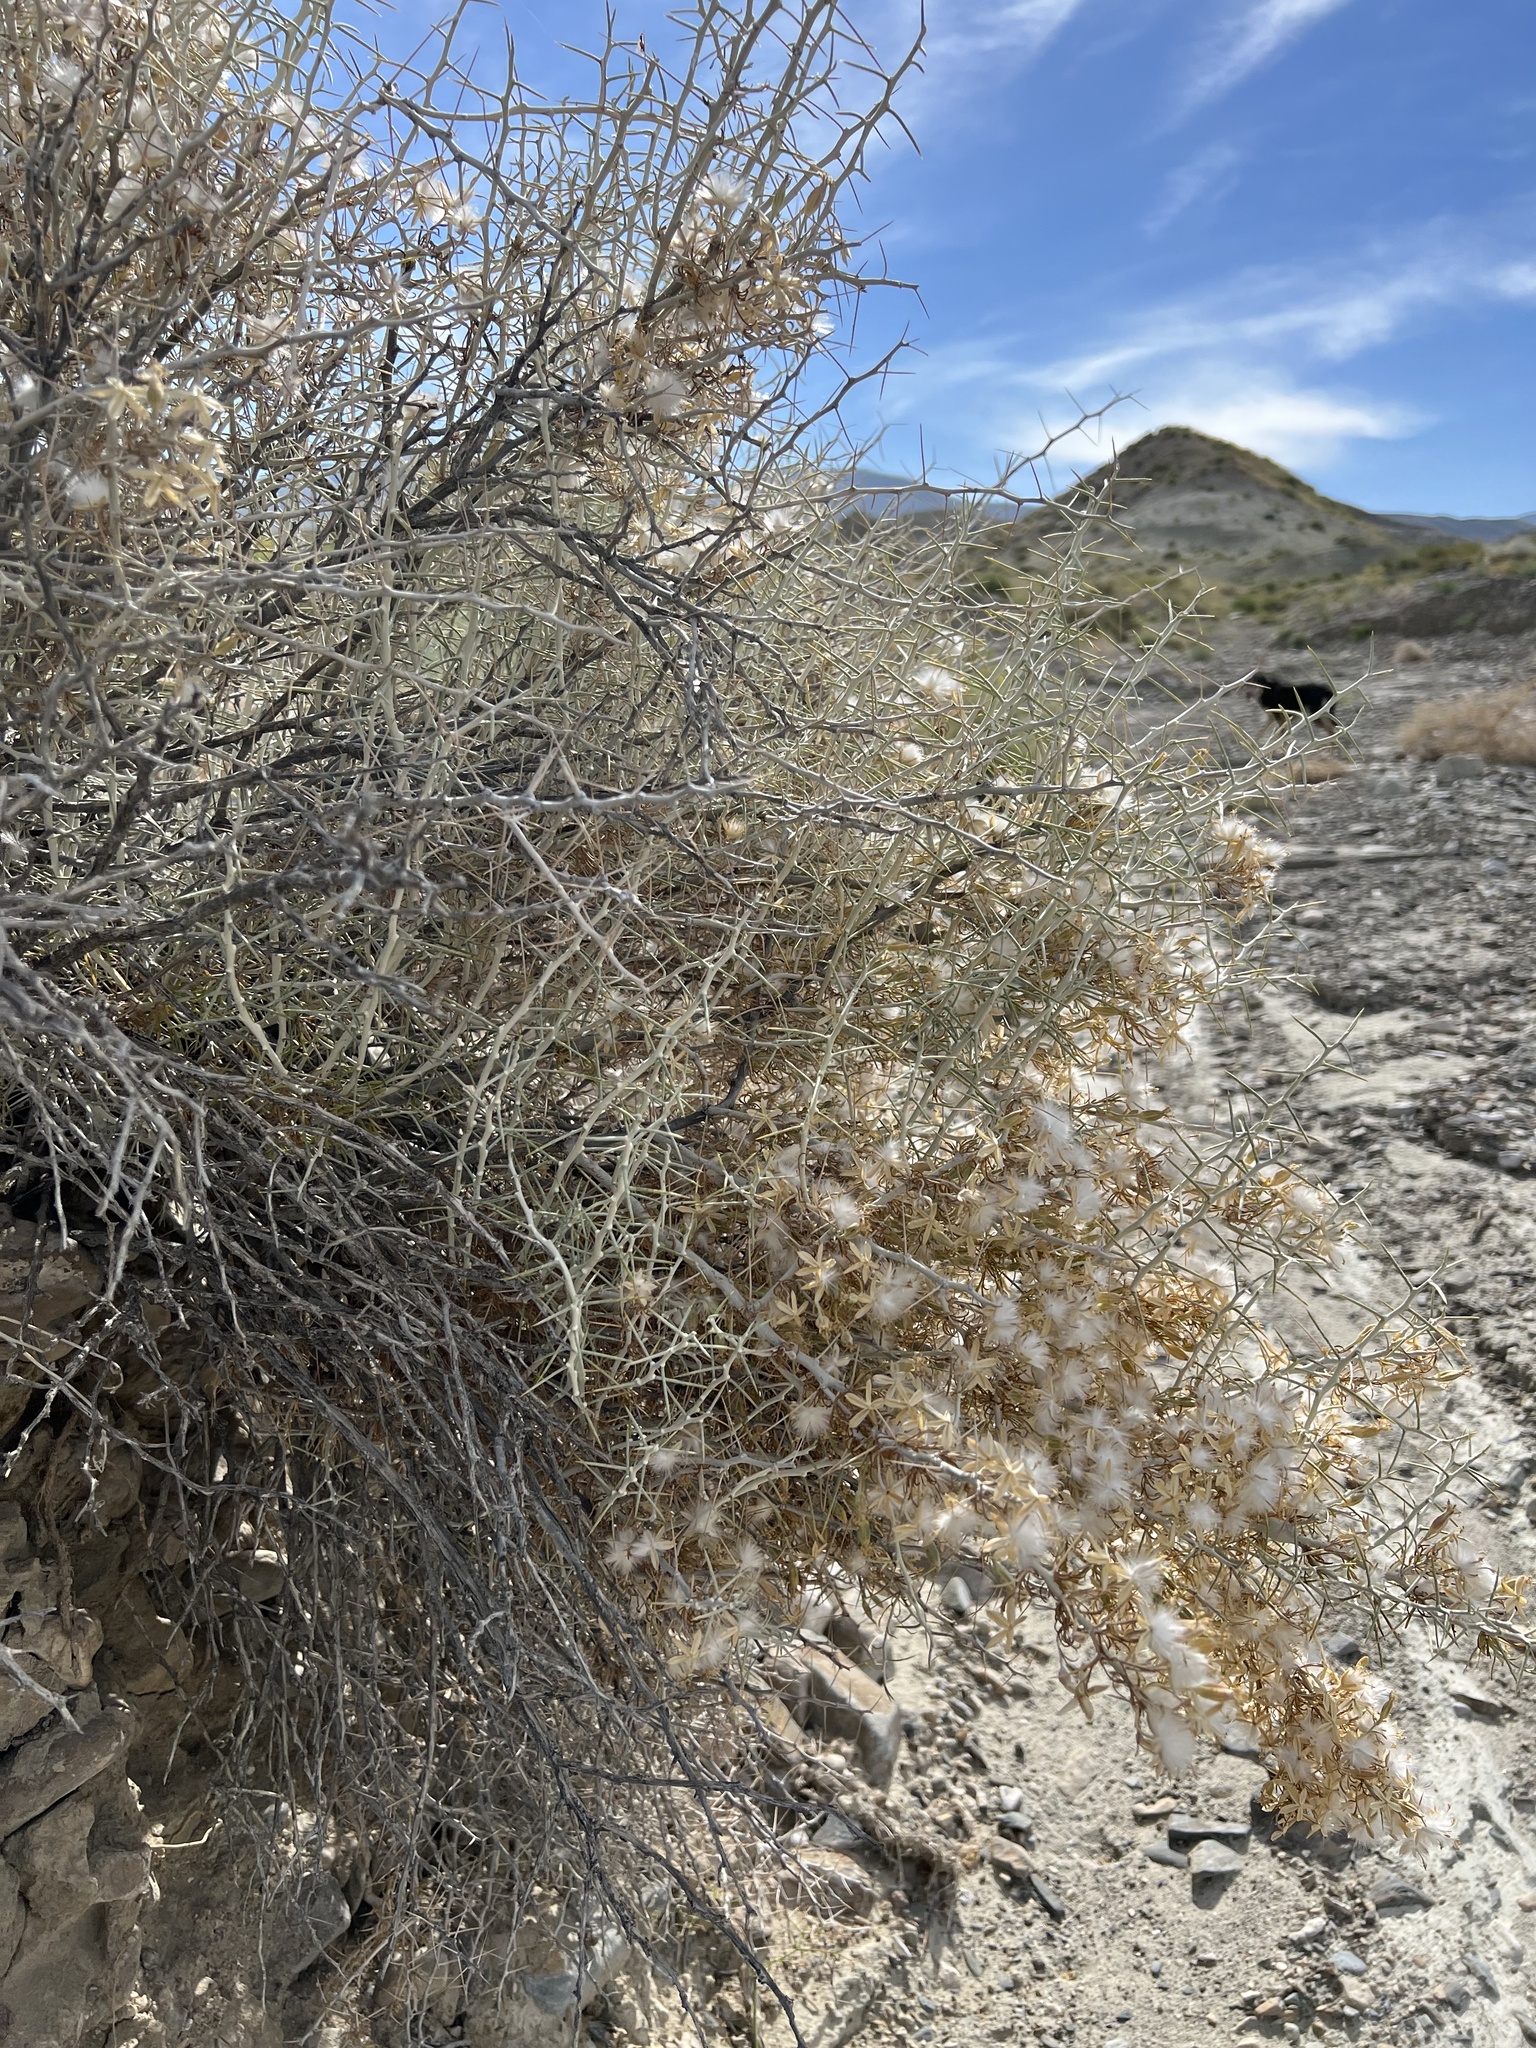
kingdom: Plantae
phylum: Tracheophyta
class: Magnoliopsida
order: Asterales
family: Asteraceae
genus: Tetradymia
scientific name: Tetradymia axillaris
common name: Long-spine horsebrush
